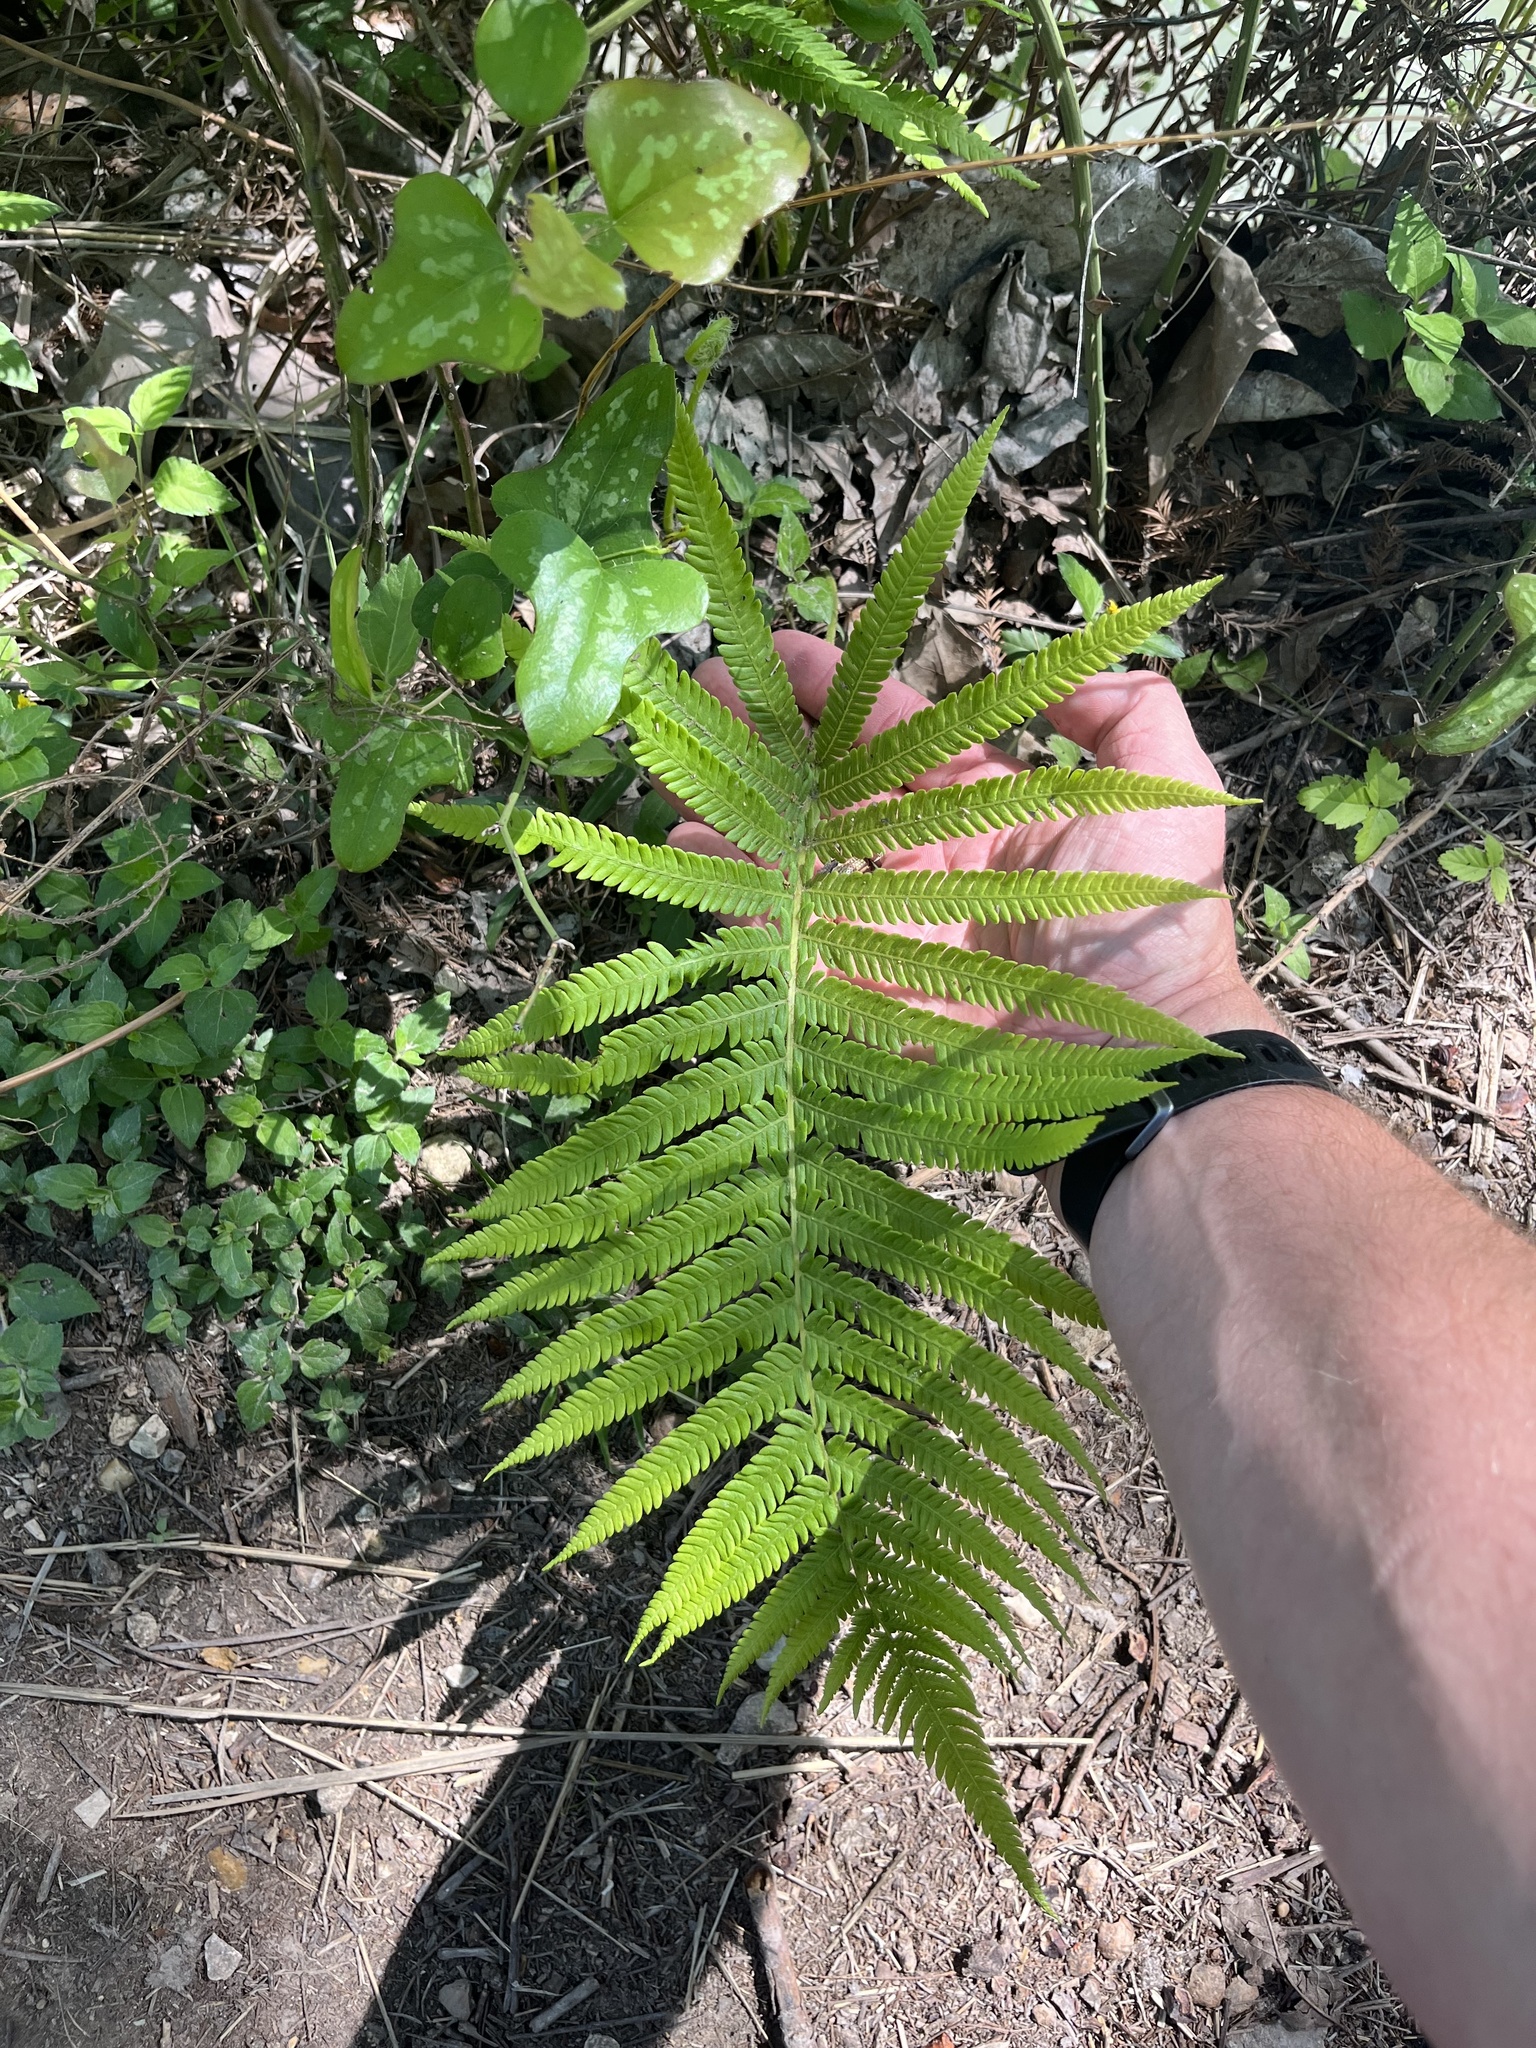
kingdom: Plantae
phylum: Tracheophyta
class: Polypodiopsida
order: Polypodiales
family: Thelypteridaceae
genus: Pelazoneuron
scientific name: Pelazoneuron ovatum
